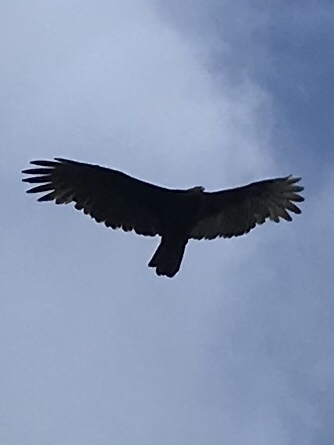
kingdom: Animalia
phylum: Chordata
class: Aves
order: Accipitriformes
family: Cathartidae
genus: Cathartes
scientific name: Cathartes aura
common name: Turkey vulture
